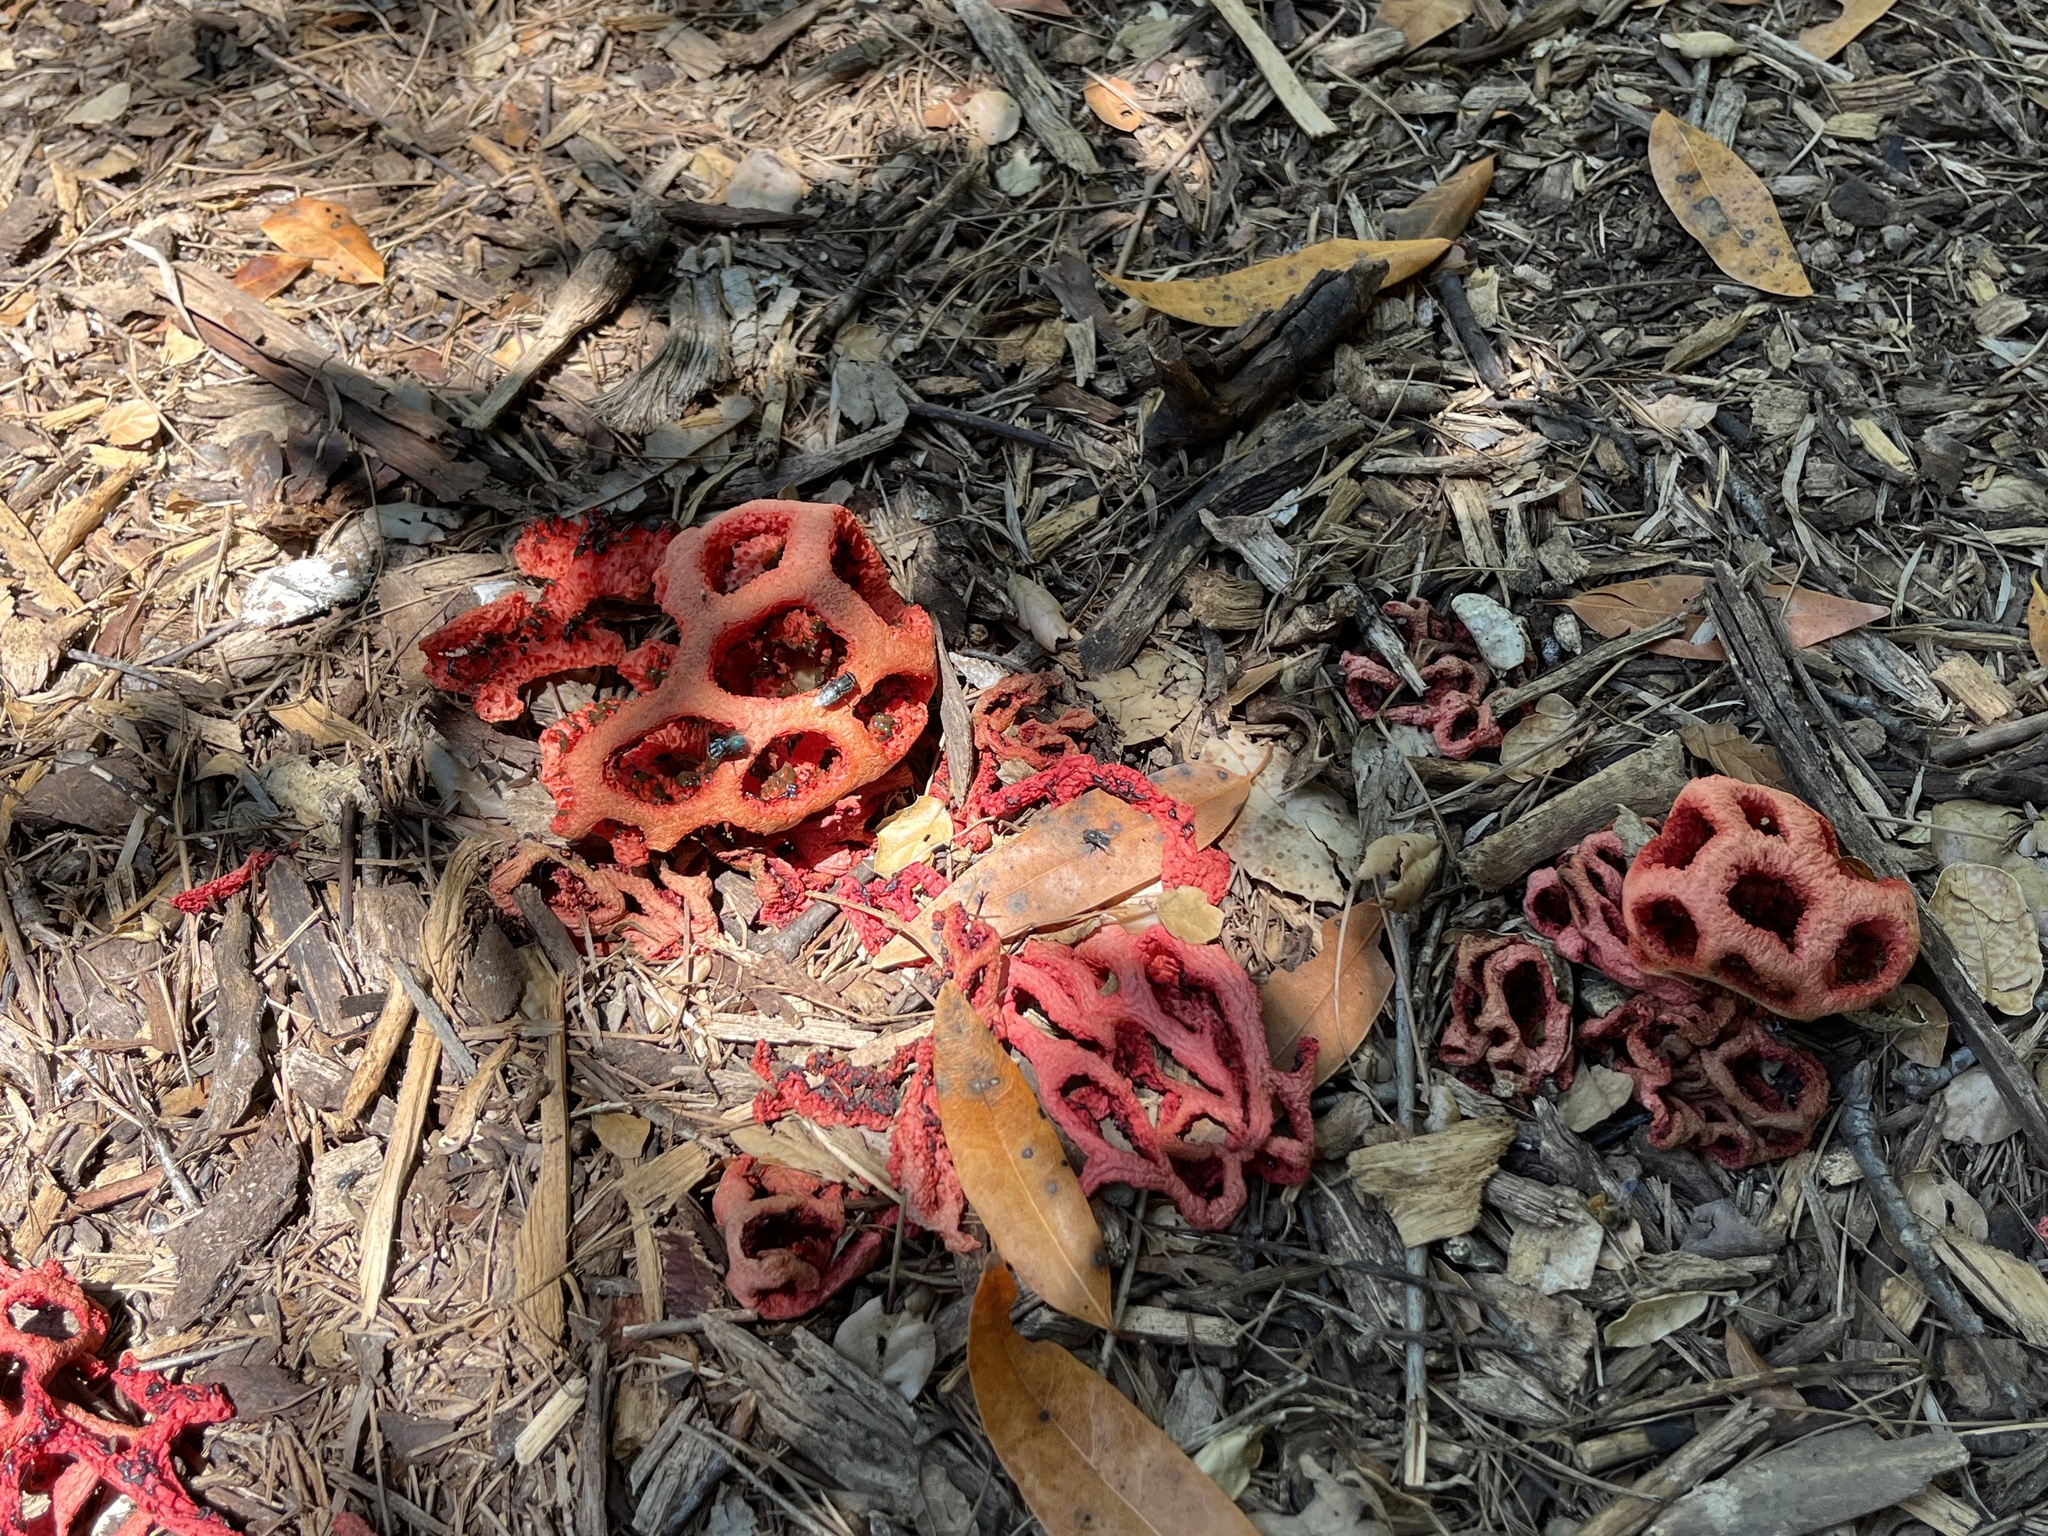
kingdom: Fungi
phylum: Basidiomycota
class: Agaricomycetes
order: Phallales
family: Phallaceae
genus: Clathrus
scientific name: Clathrus ruber
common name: Red cage
